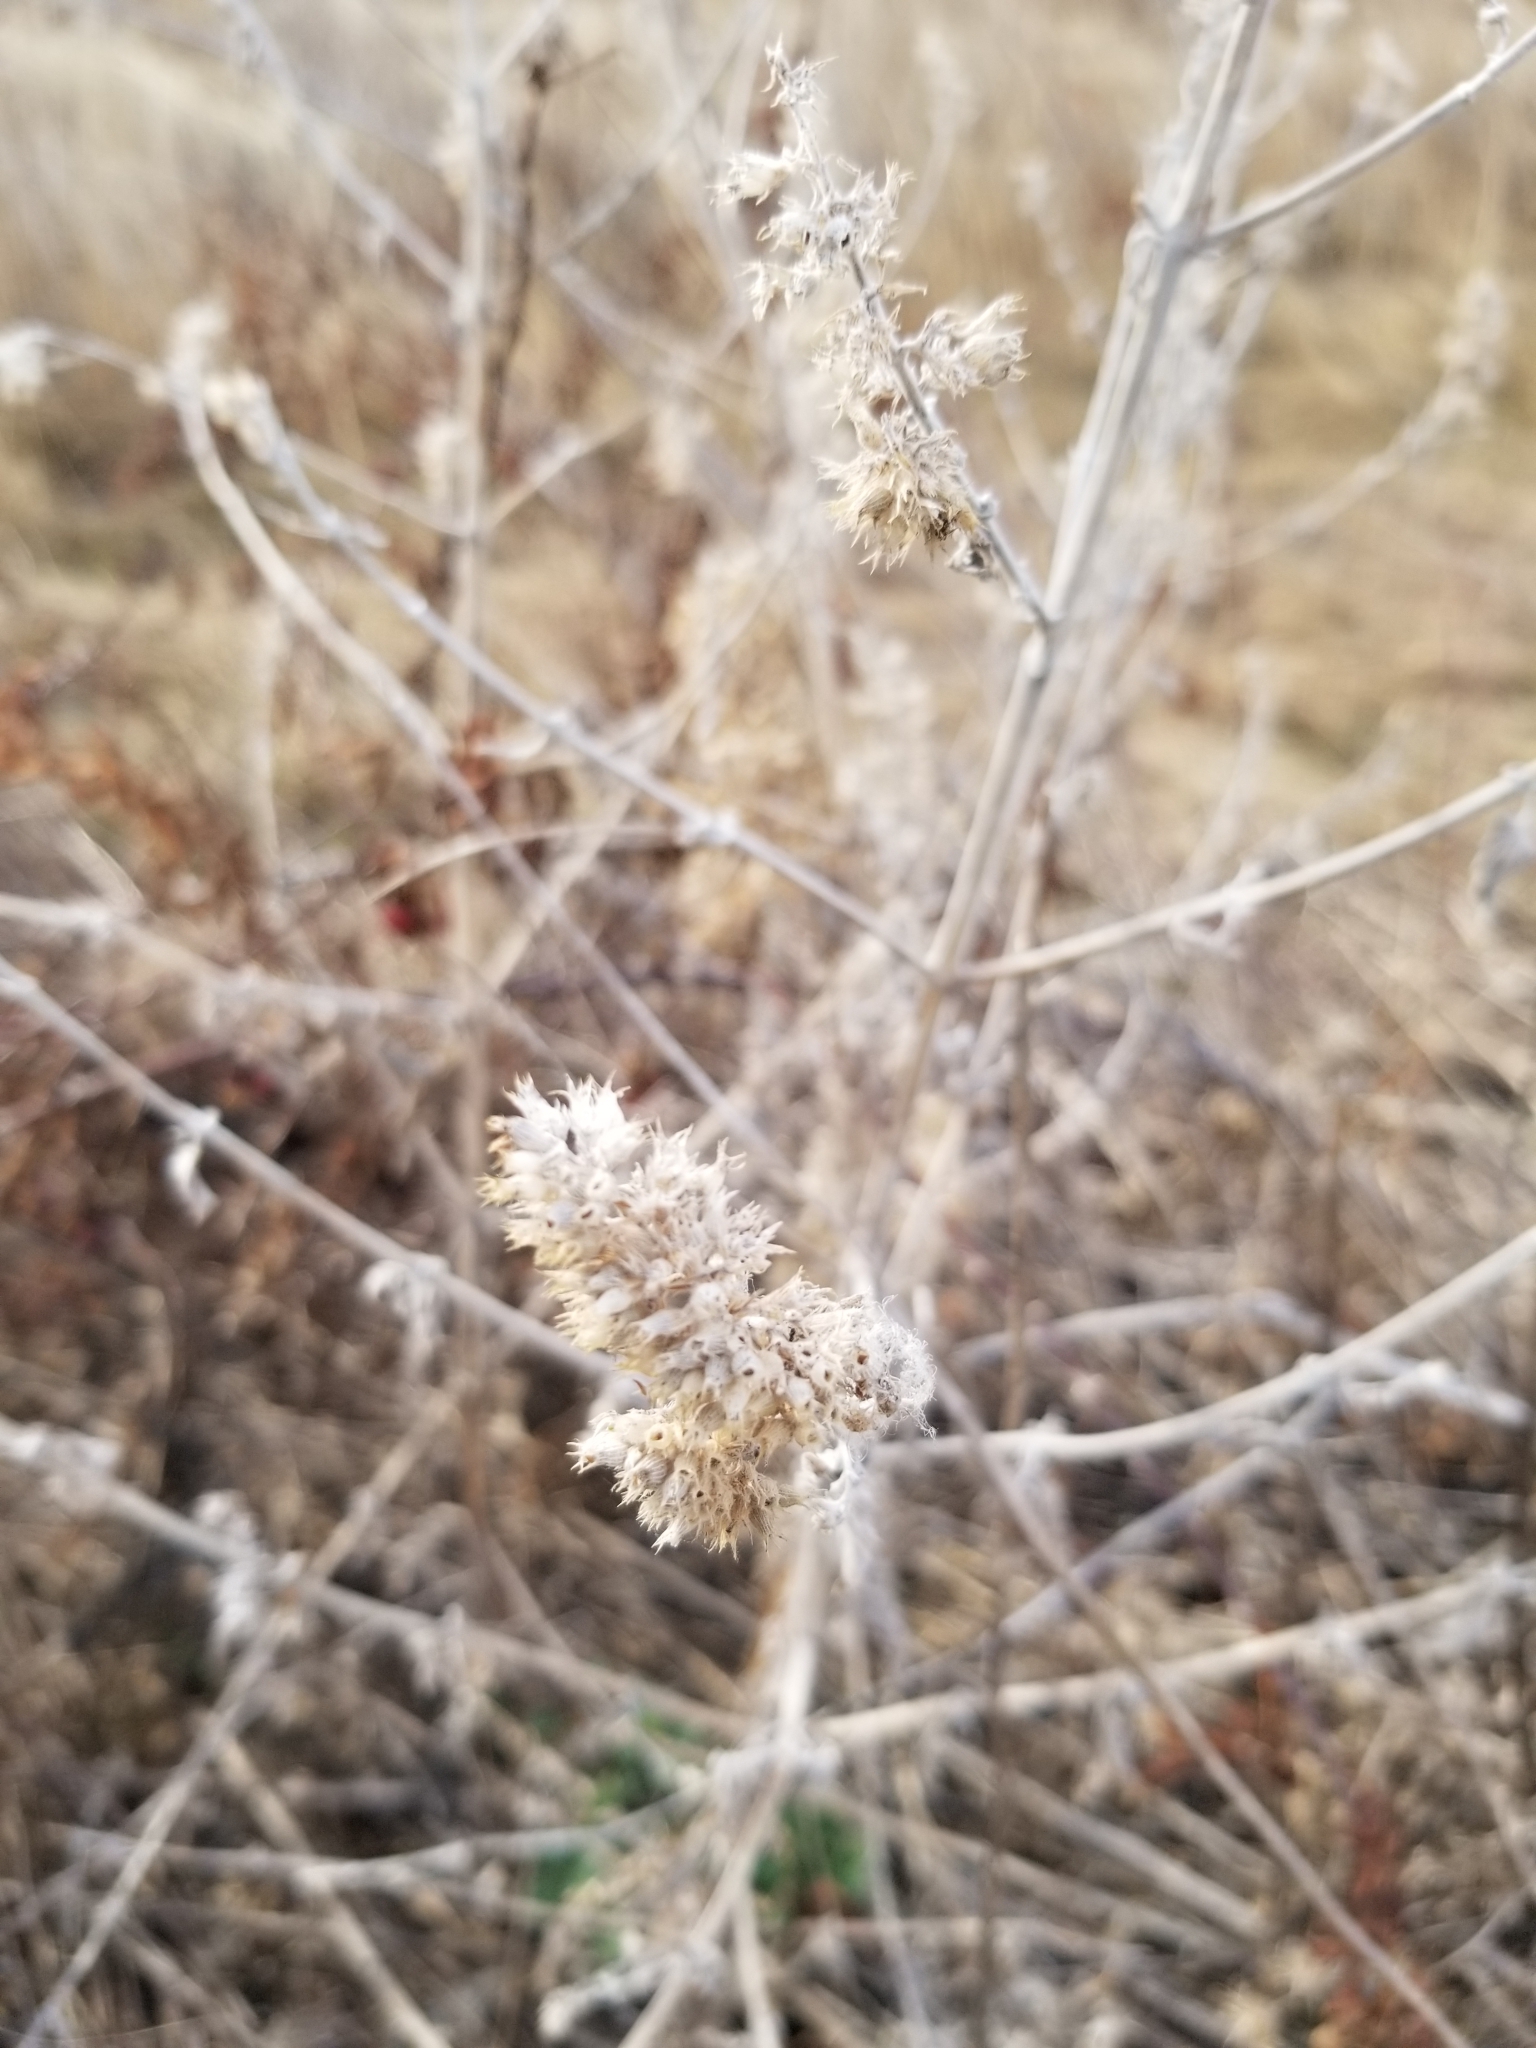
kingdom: Plantae
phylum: Tracheophyta
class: Magnoliopsida
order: Lamiales
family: Lamiaceae
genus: Nepeta
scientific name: Nepeta cataria
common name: Catnip
